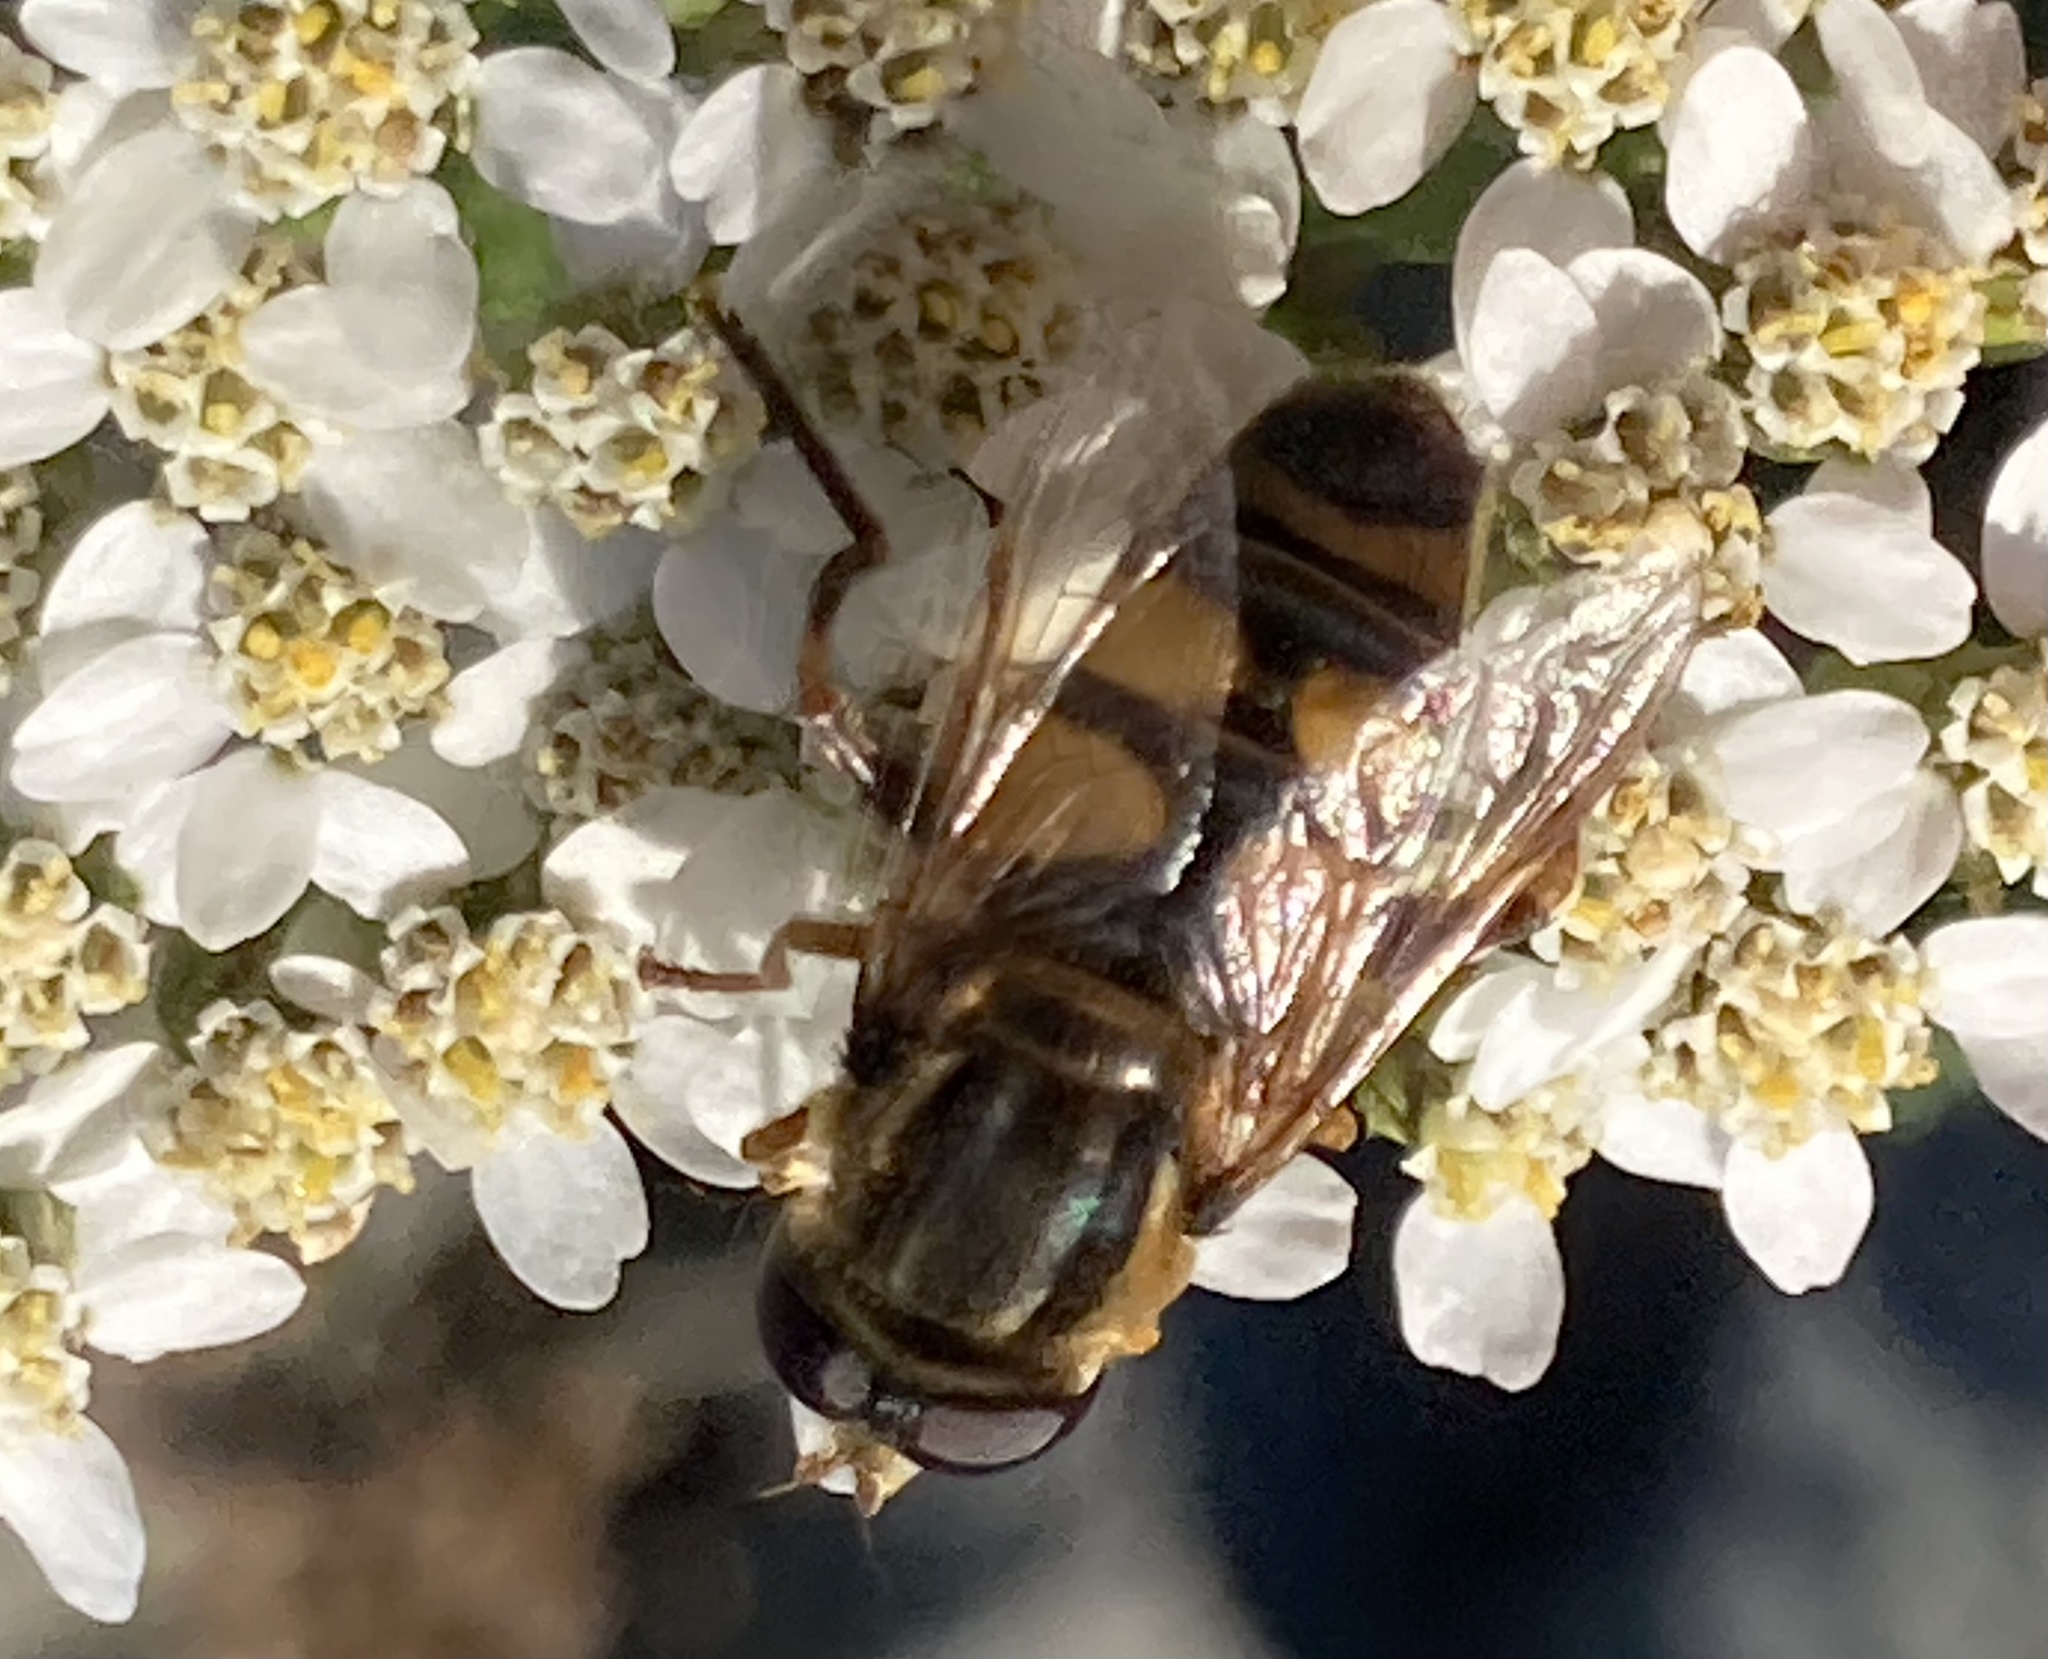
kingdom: Animalia
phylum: Arthropoda
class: Insecta
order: Diptera
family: Syrphidae
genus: Helophilus
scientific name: Helophilus fasciatus
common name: Narrow-headed marsh fly
